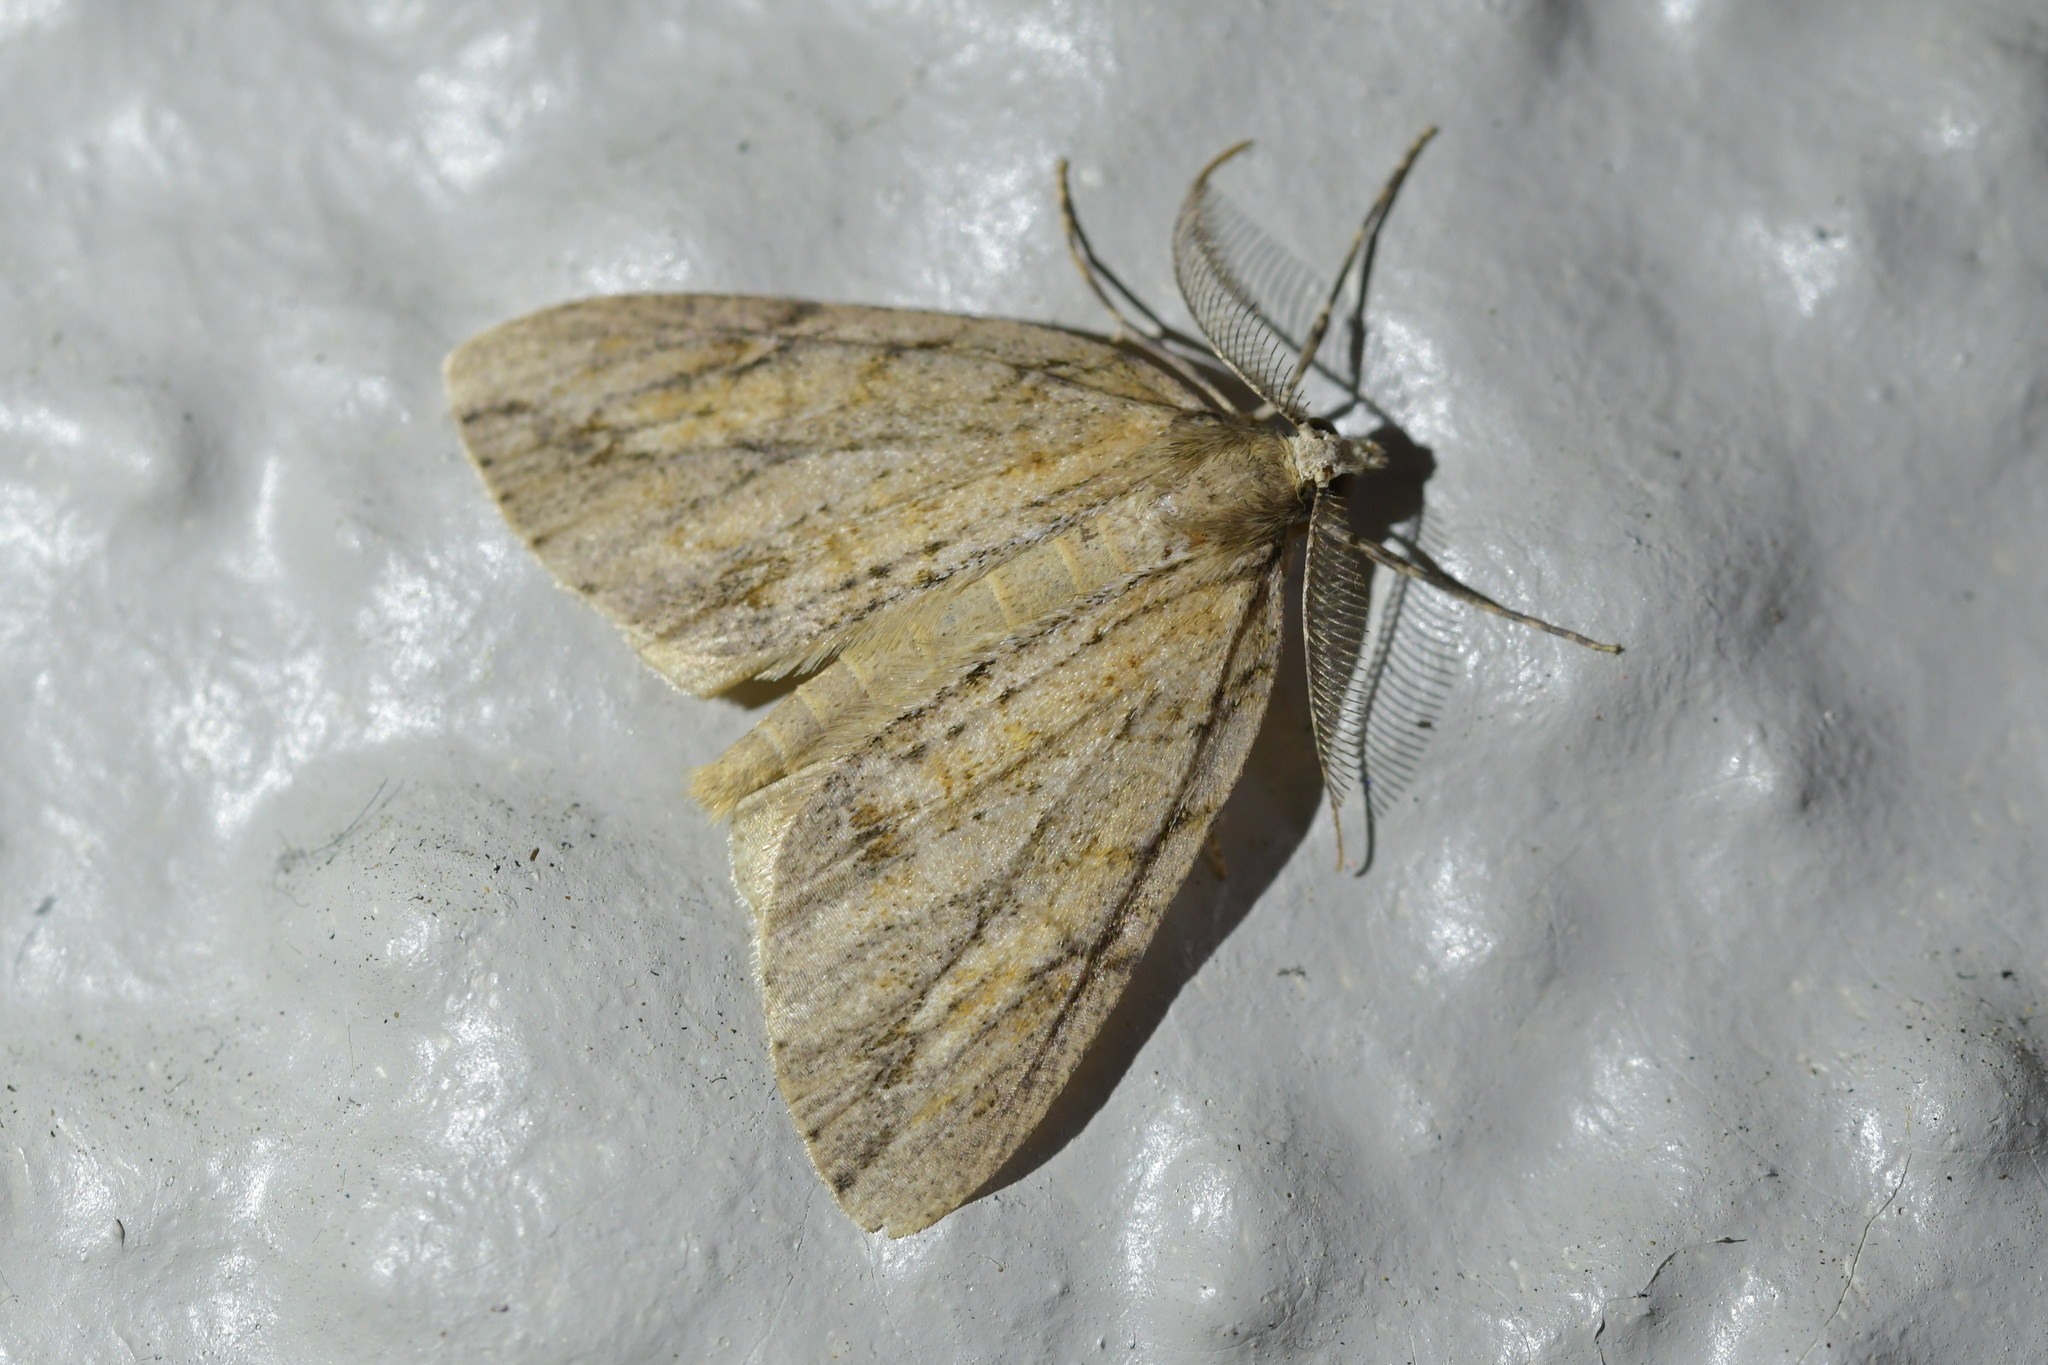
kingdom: Animalia
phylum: Arthropoda
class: Insecta
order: Lepidoptera
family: Geometridae
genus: Pseudocoremia
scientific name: Pseudocoremia lupinata
